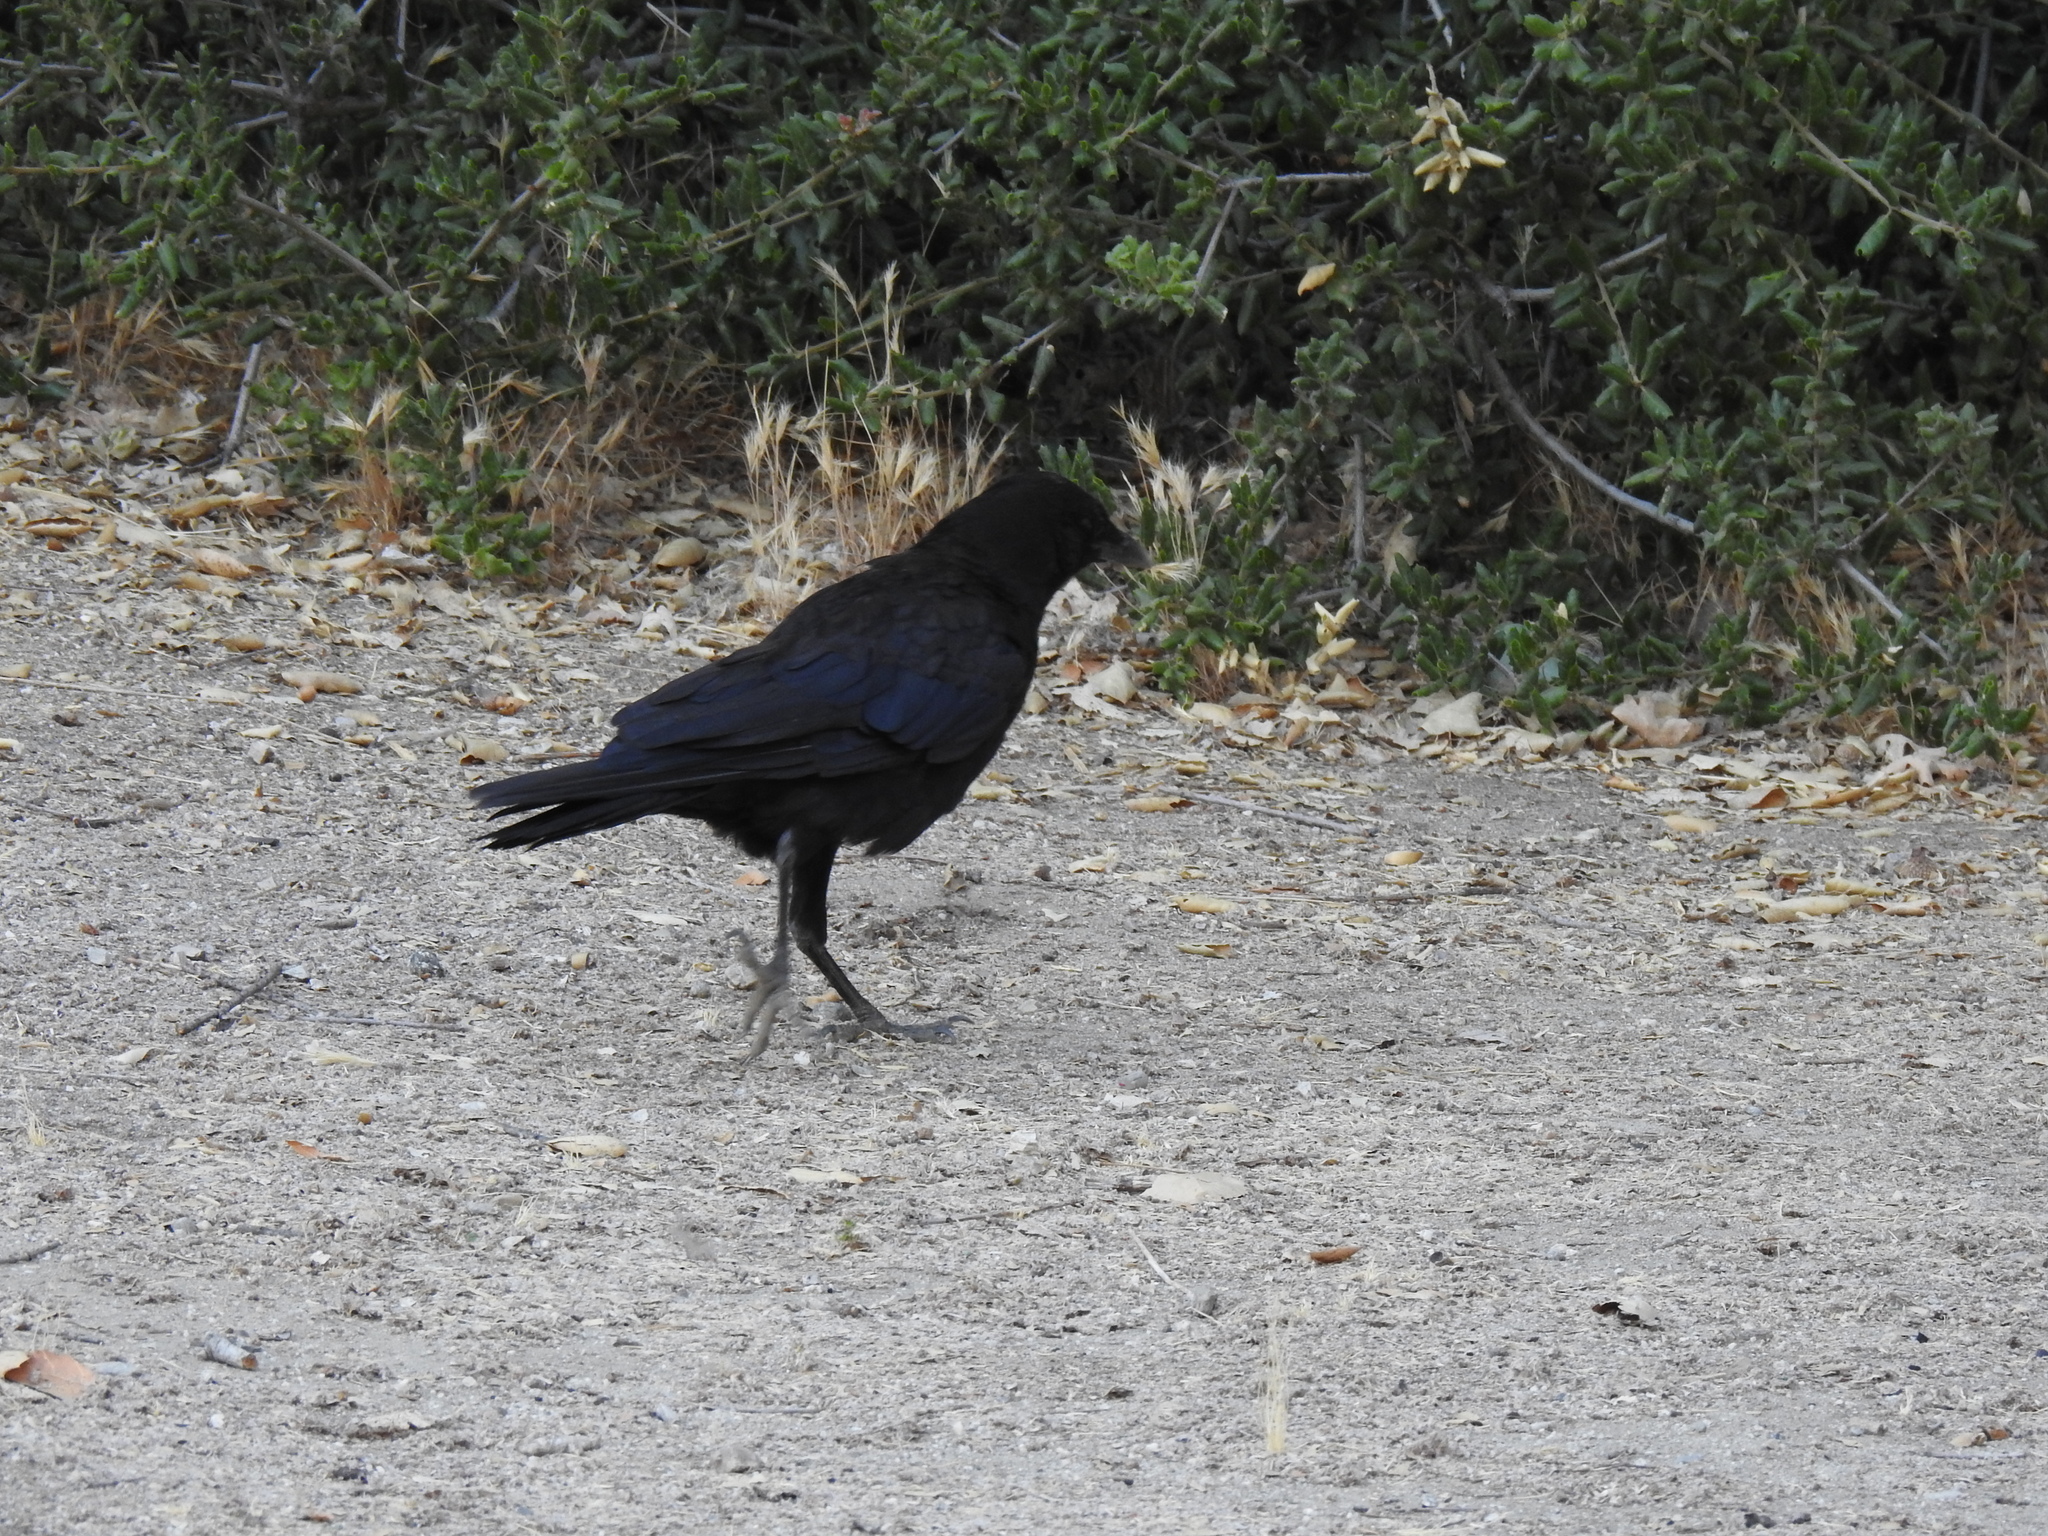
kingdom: Animalia
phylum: Chordata
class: Aves
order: Passeriformes
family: Corvidae
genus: Corvus
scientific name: Corvus brachyrhynchos
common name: American crow
